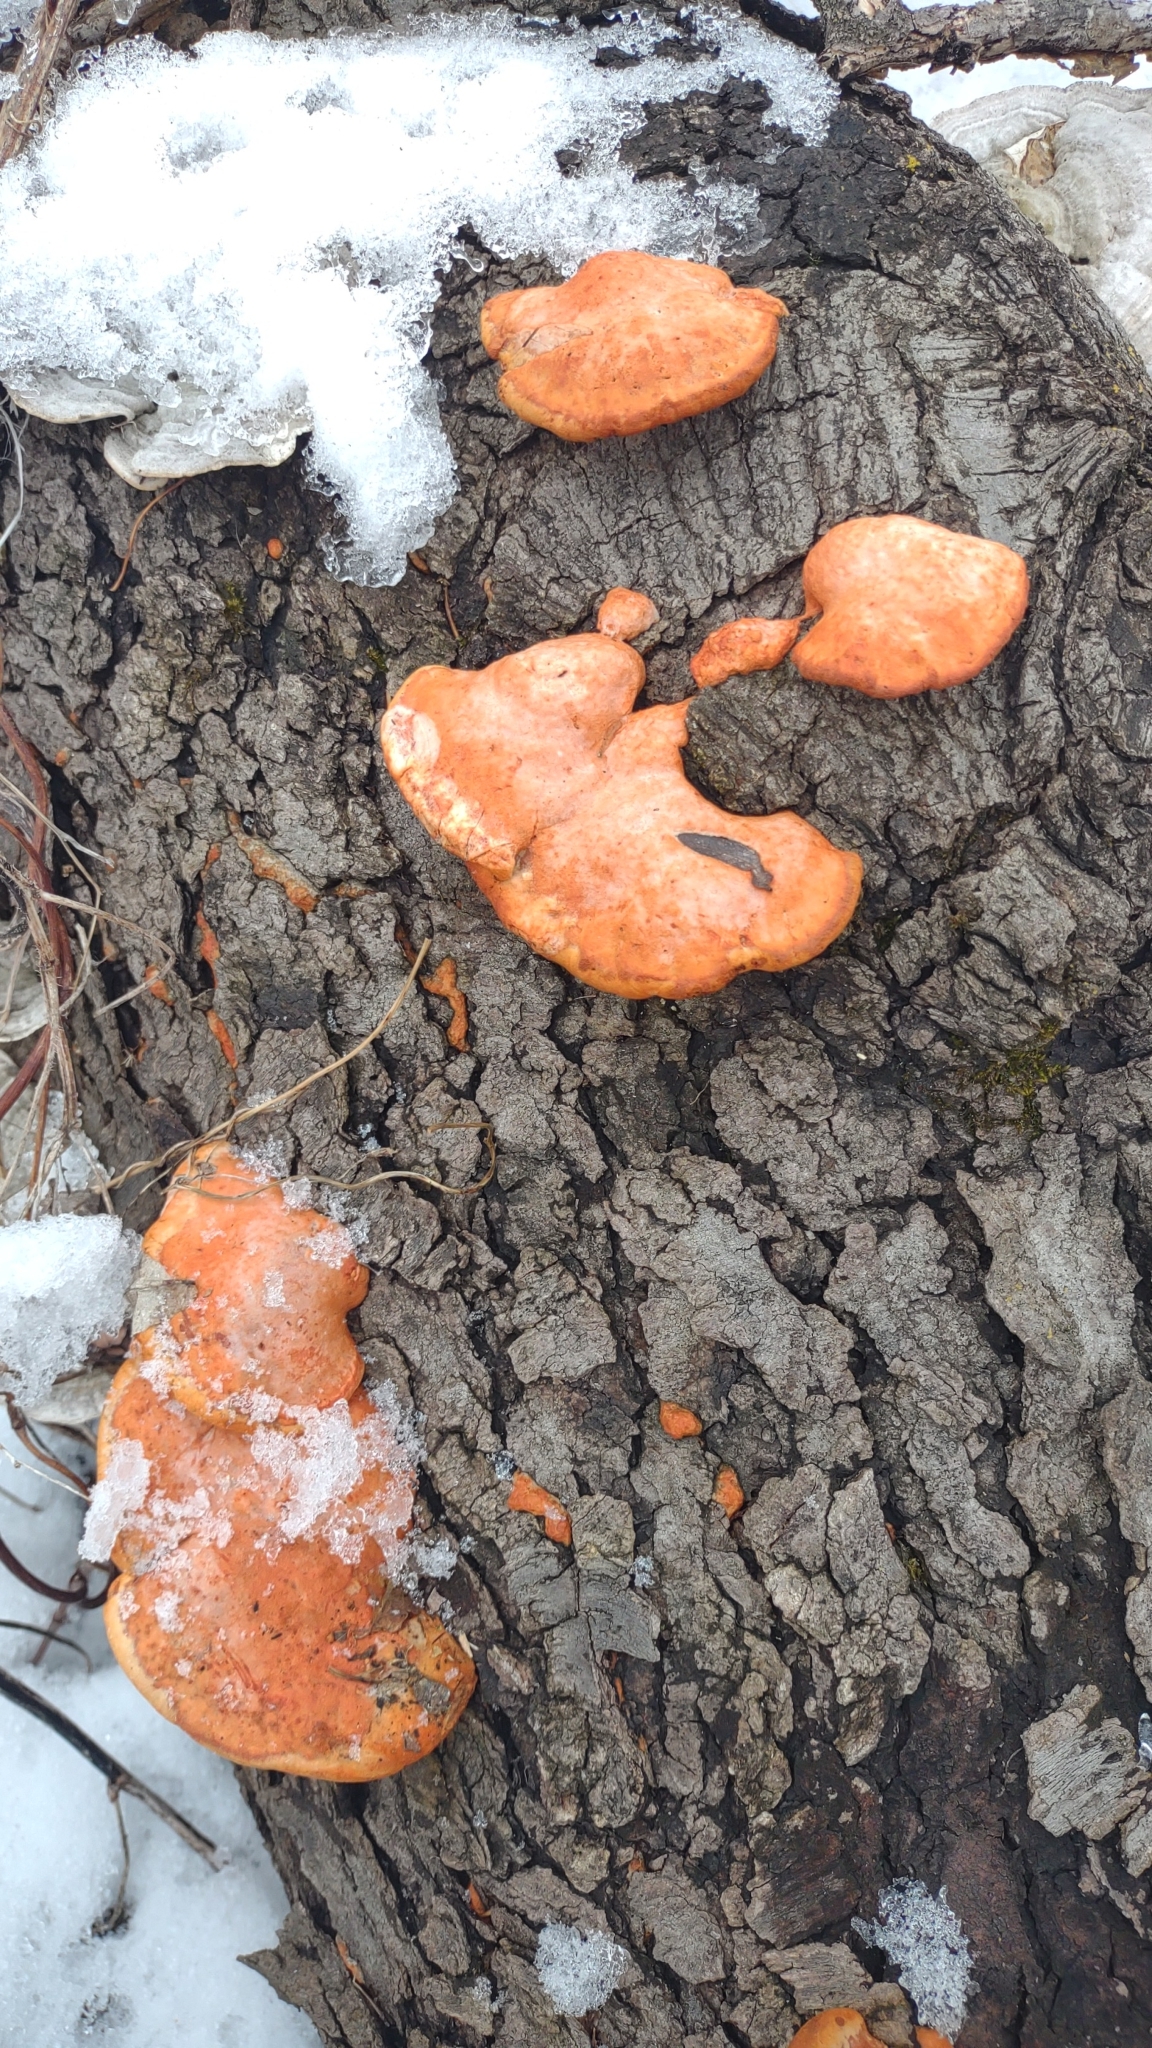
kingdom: Fungi
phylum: Basidiomycota
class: Agaricomycetes
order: Polyporales
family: Polyporaceae
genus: Trametes
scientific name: Trametes cinnabarina
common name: Northern cinnabar polypore
